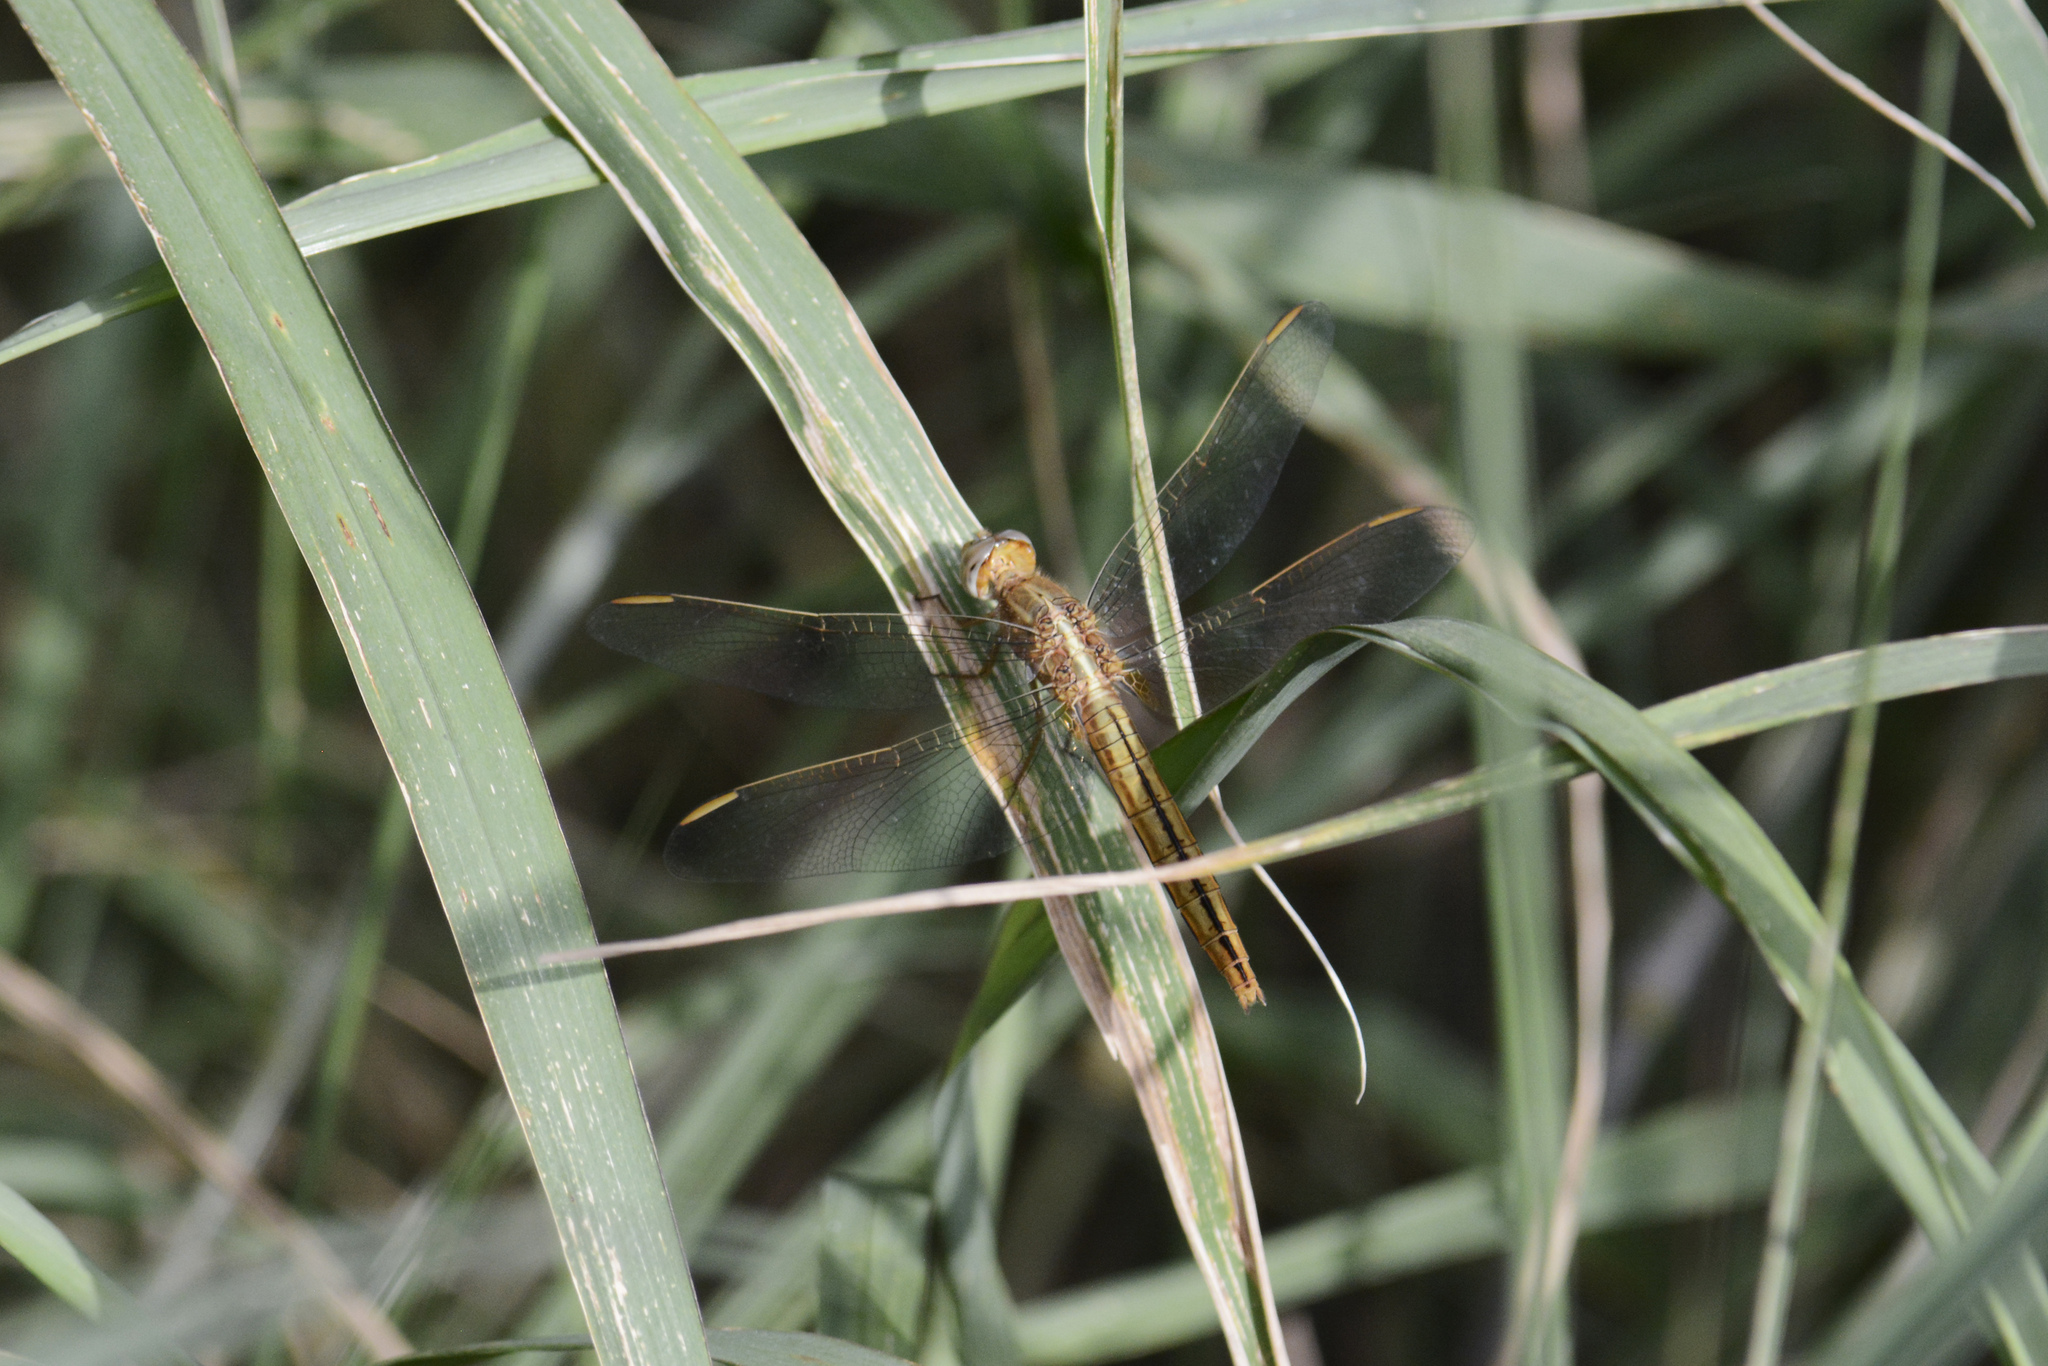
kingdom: Animalia
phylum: Arthropoda
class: Insecta
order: Odonata
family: Libellulidae
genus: Crocothemis
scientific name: Crocothemis nigrifrons
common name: Black-headed skimmer
